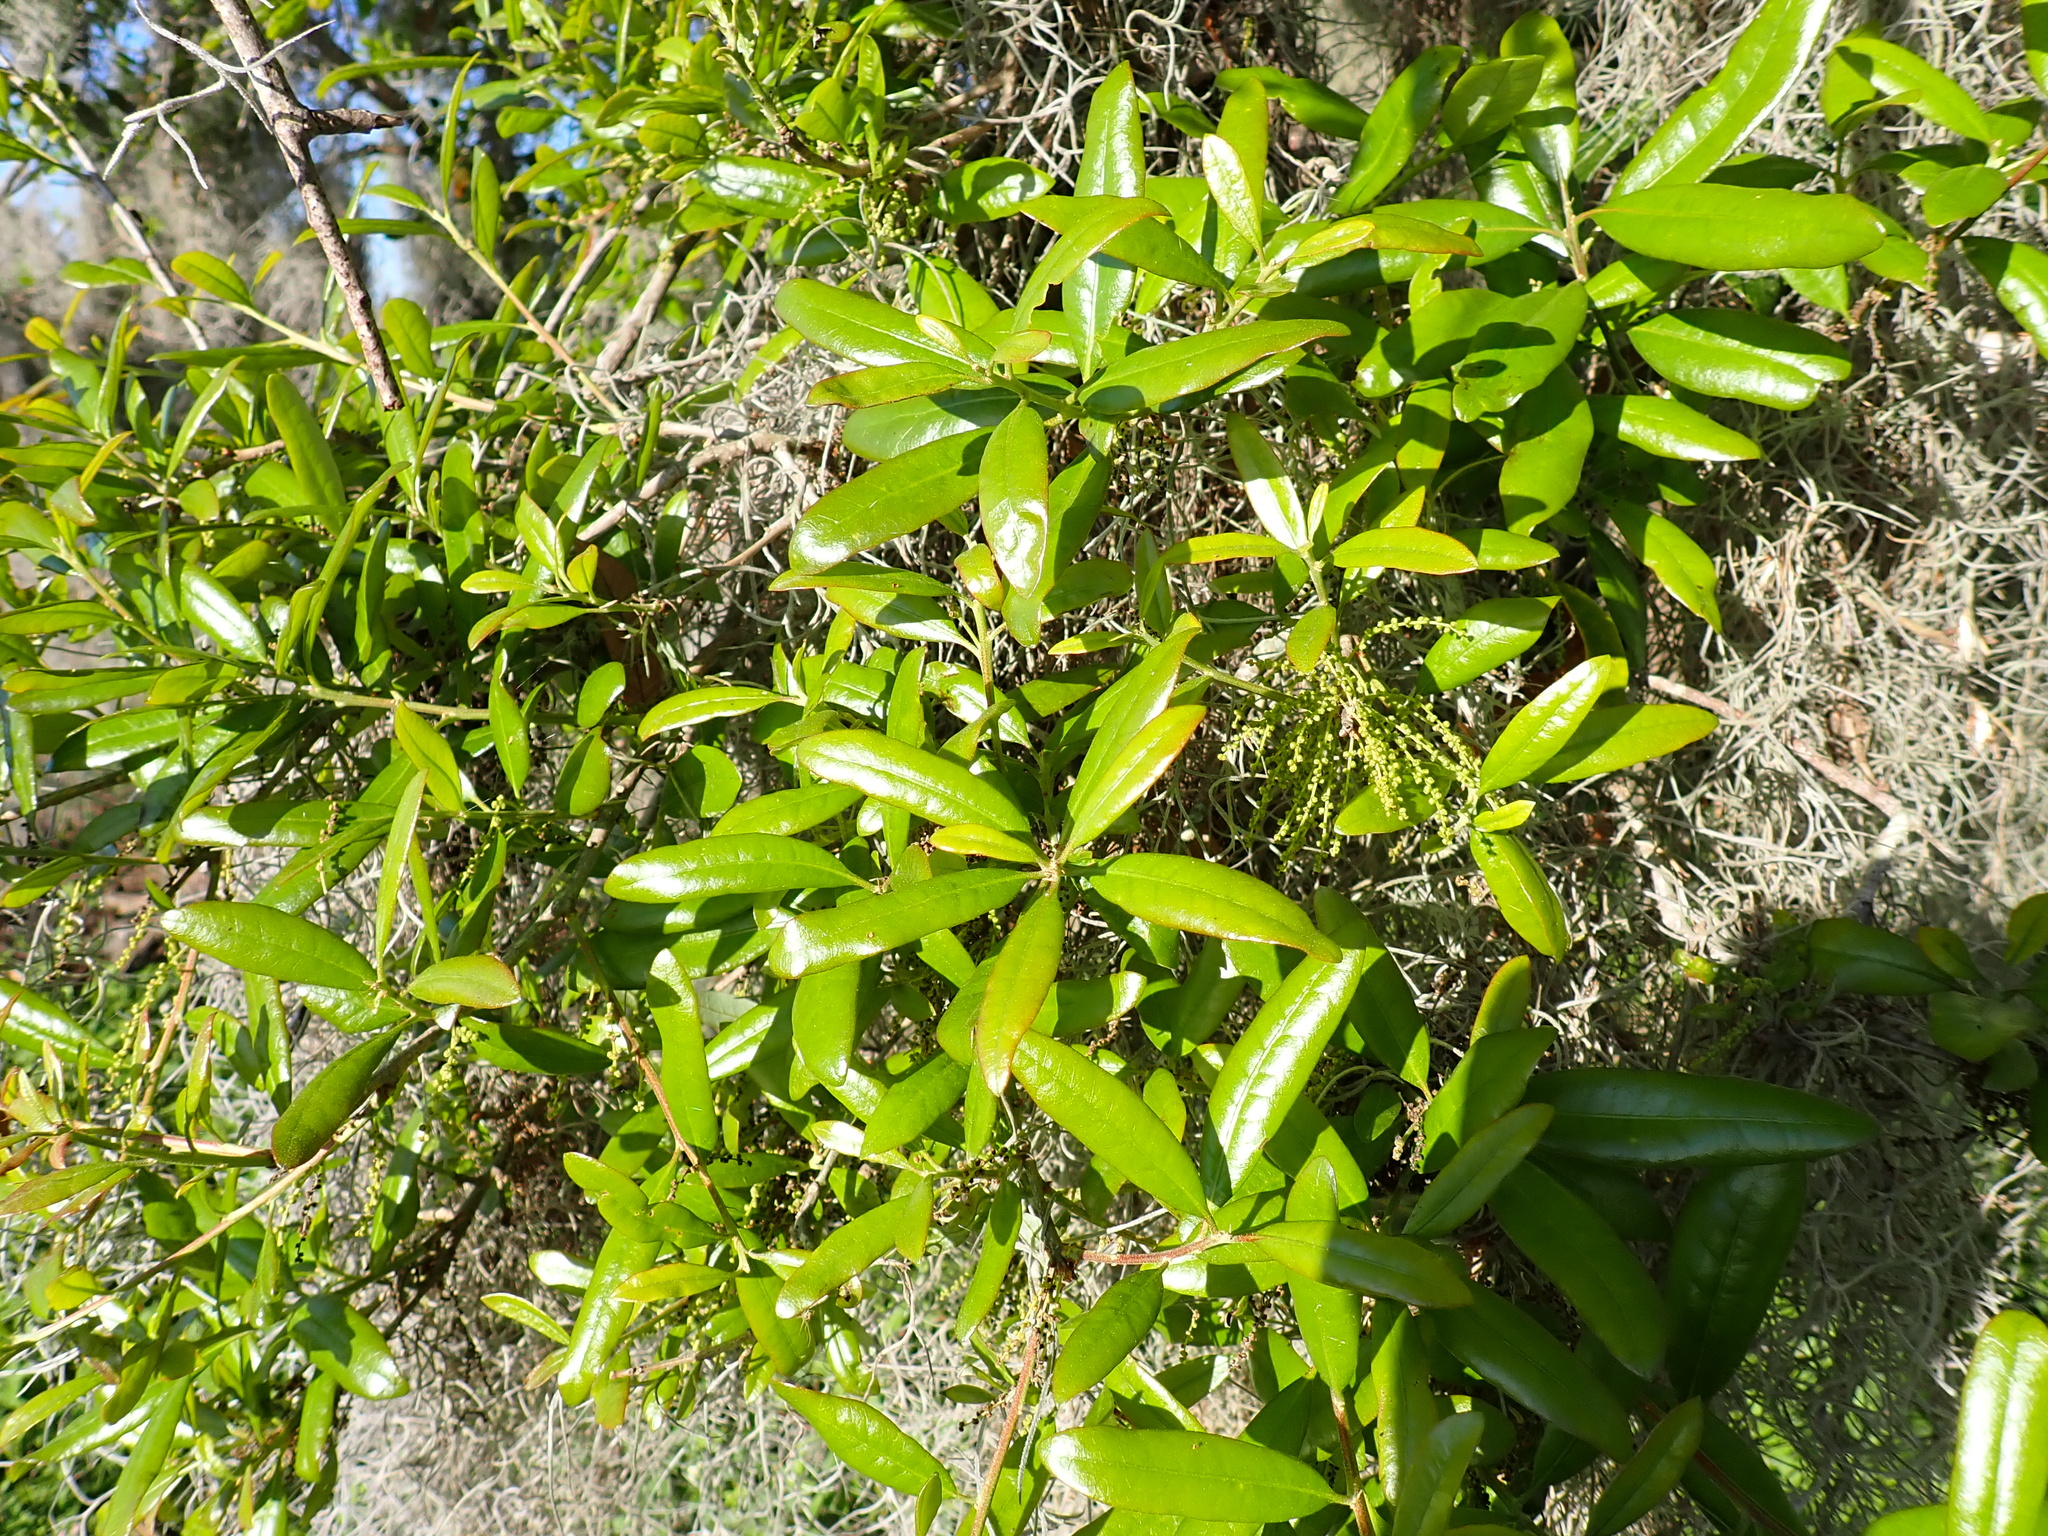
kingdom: Plantae
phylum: Tracheophyta
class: Magnoliopsida
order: Fagales
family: Fagaceae
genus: Quercus
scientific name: Quercus virginiana
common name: Southern live oak
